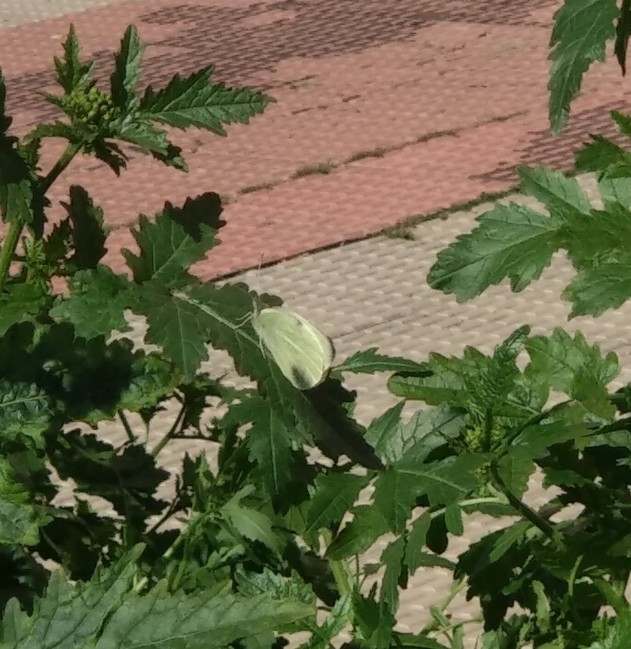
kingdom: Animalia
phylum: Arthropoda
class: Insecta
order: Lepidoptera
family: Pieridae
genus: Pieris
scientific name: Pieris brassicae
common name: Large white
